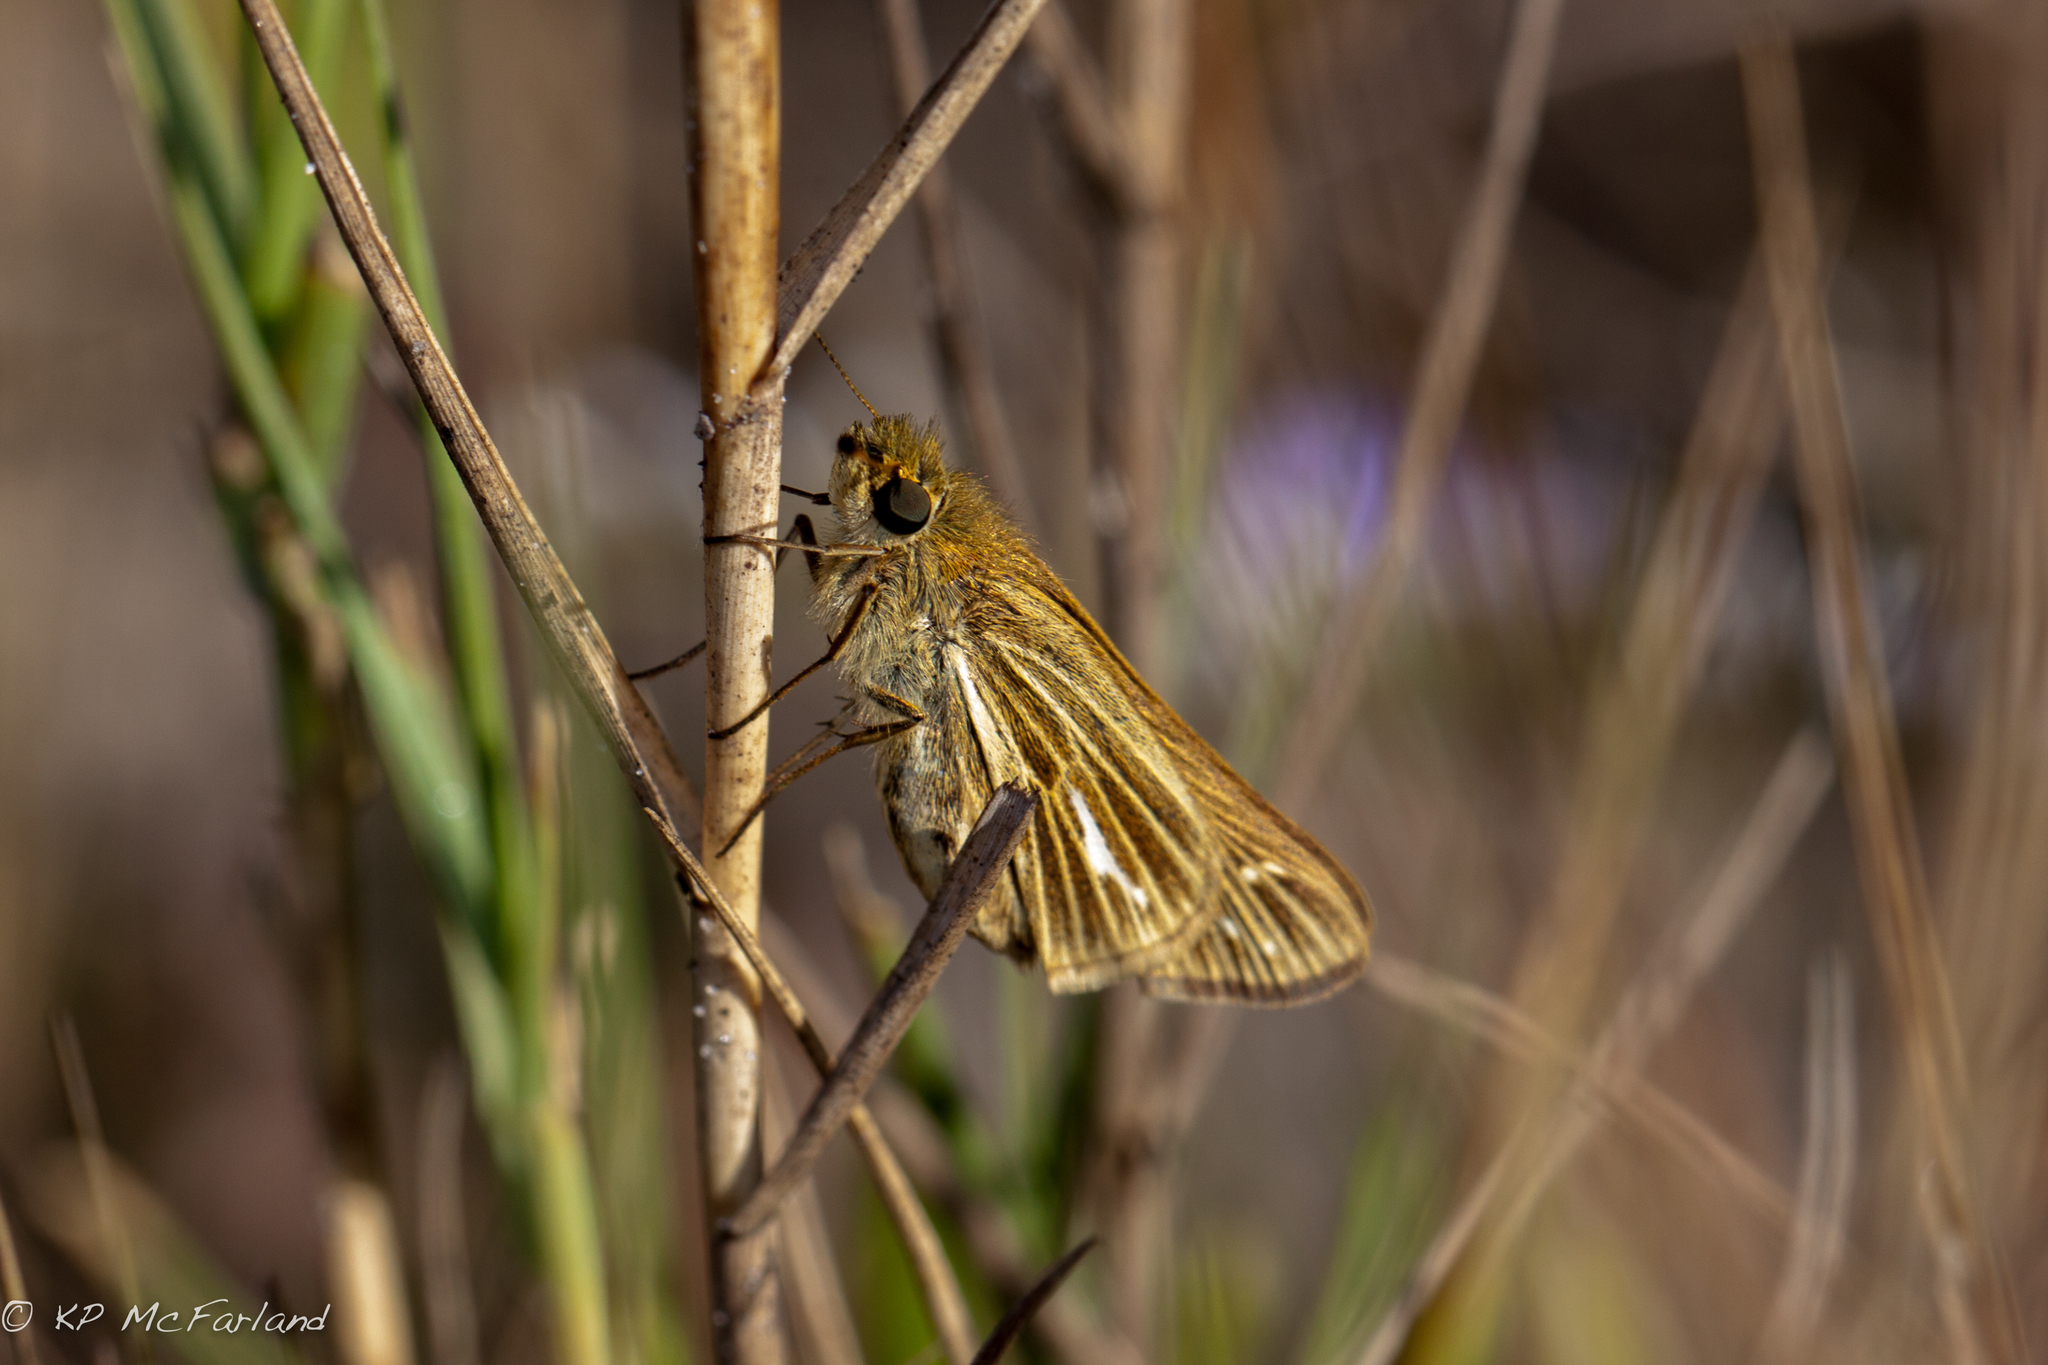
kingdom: Animalia
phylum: Arthropoda
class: Insecta
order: Lepidoptera
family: Hesperiidae
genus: Panoquina
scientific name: Panoquina panoquin
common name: Salt marsh skipper
